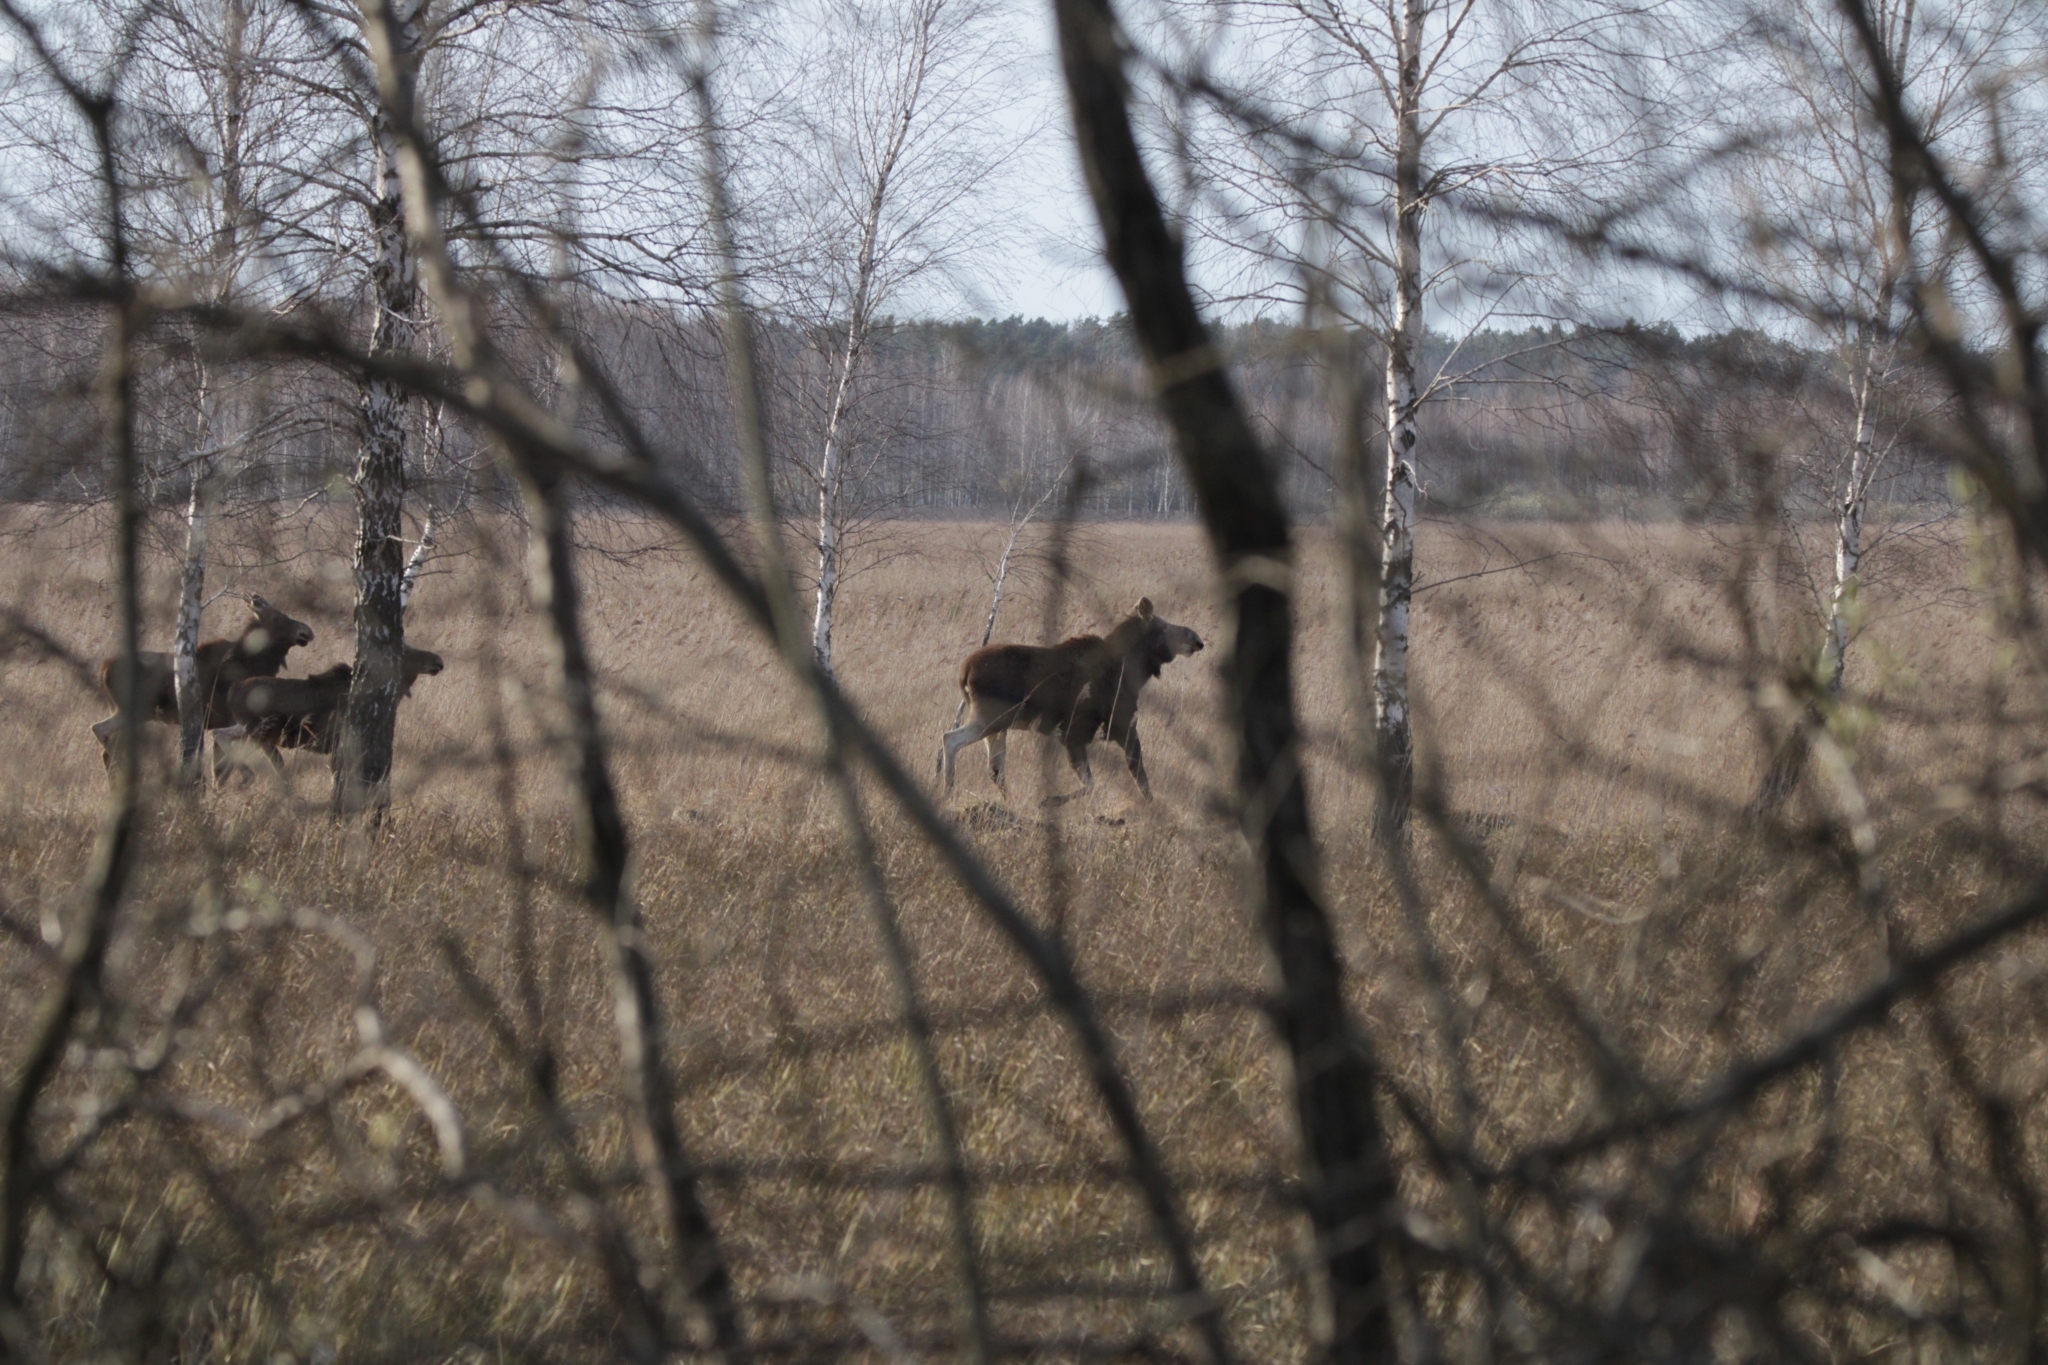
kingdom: Animalia
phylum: Chordata
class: Mammalia
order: Artiodactyla
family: Cervidae
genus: Alces
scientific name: Alces alces
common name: Moose
